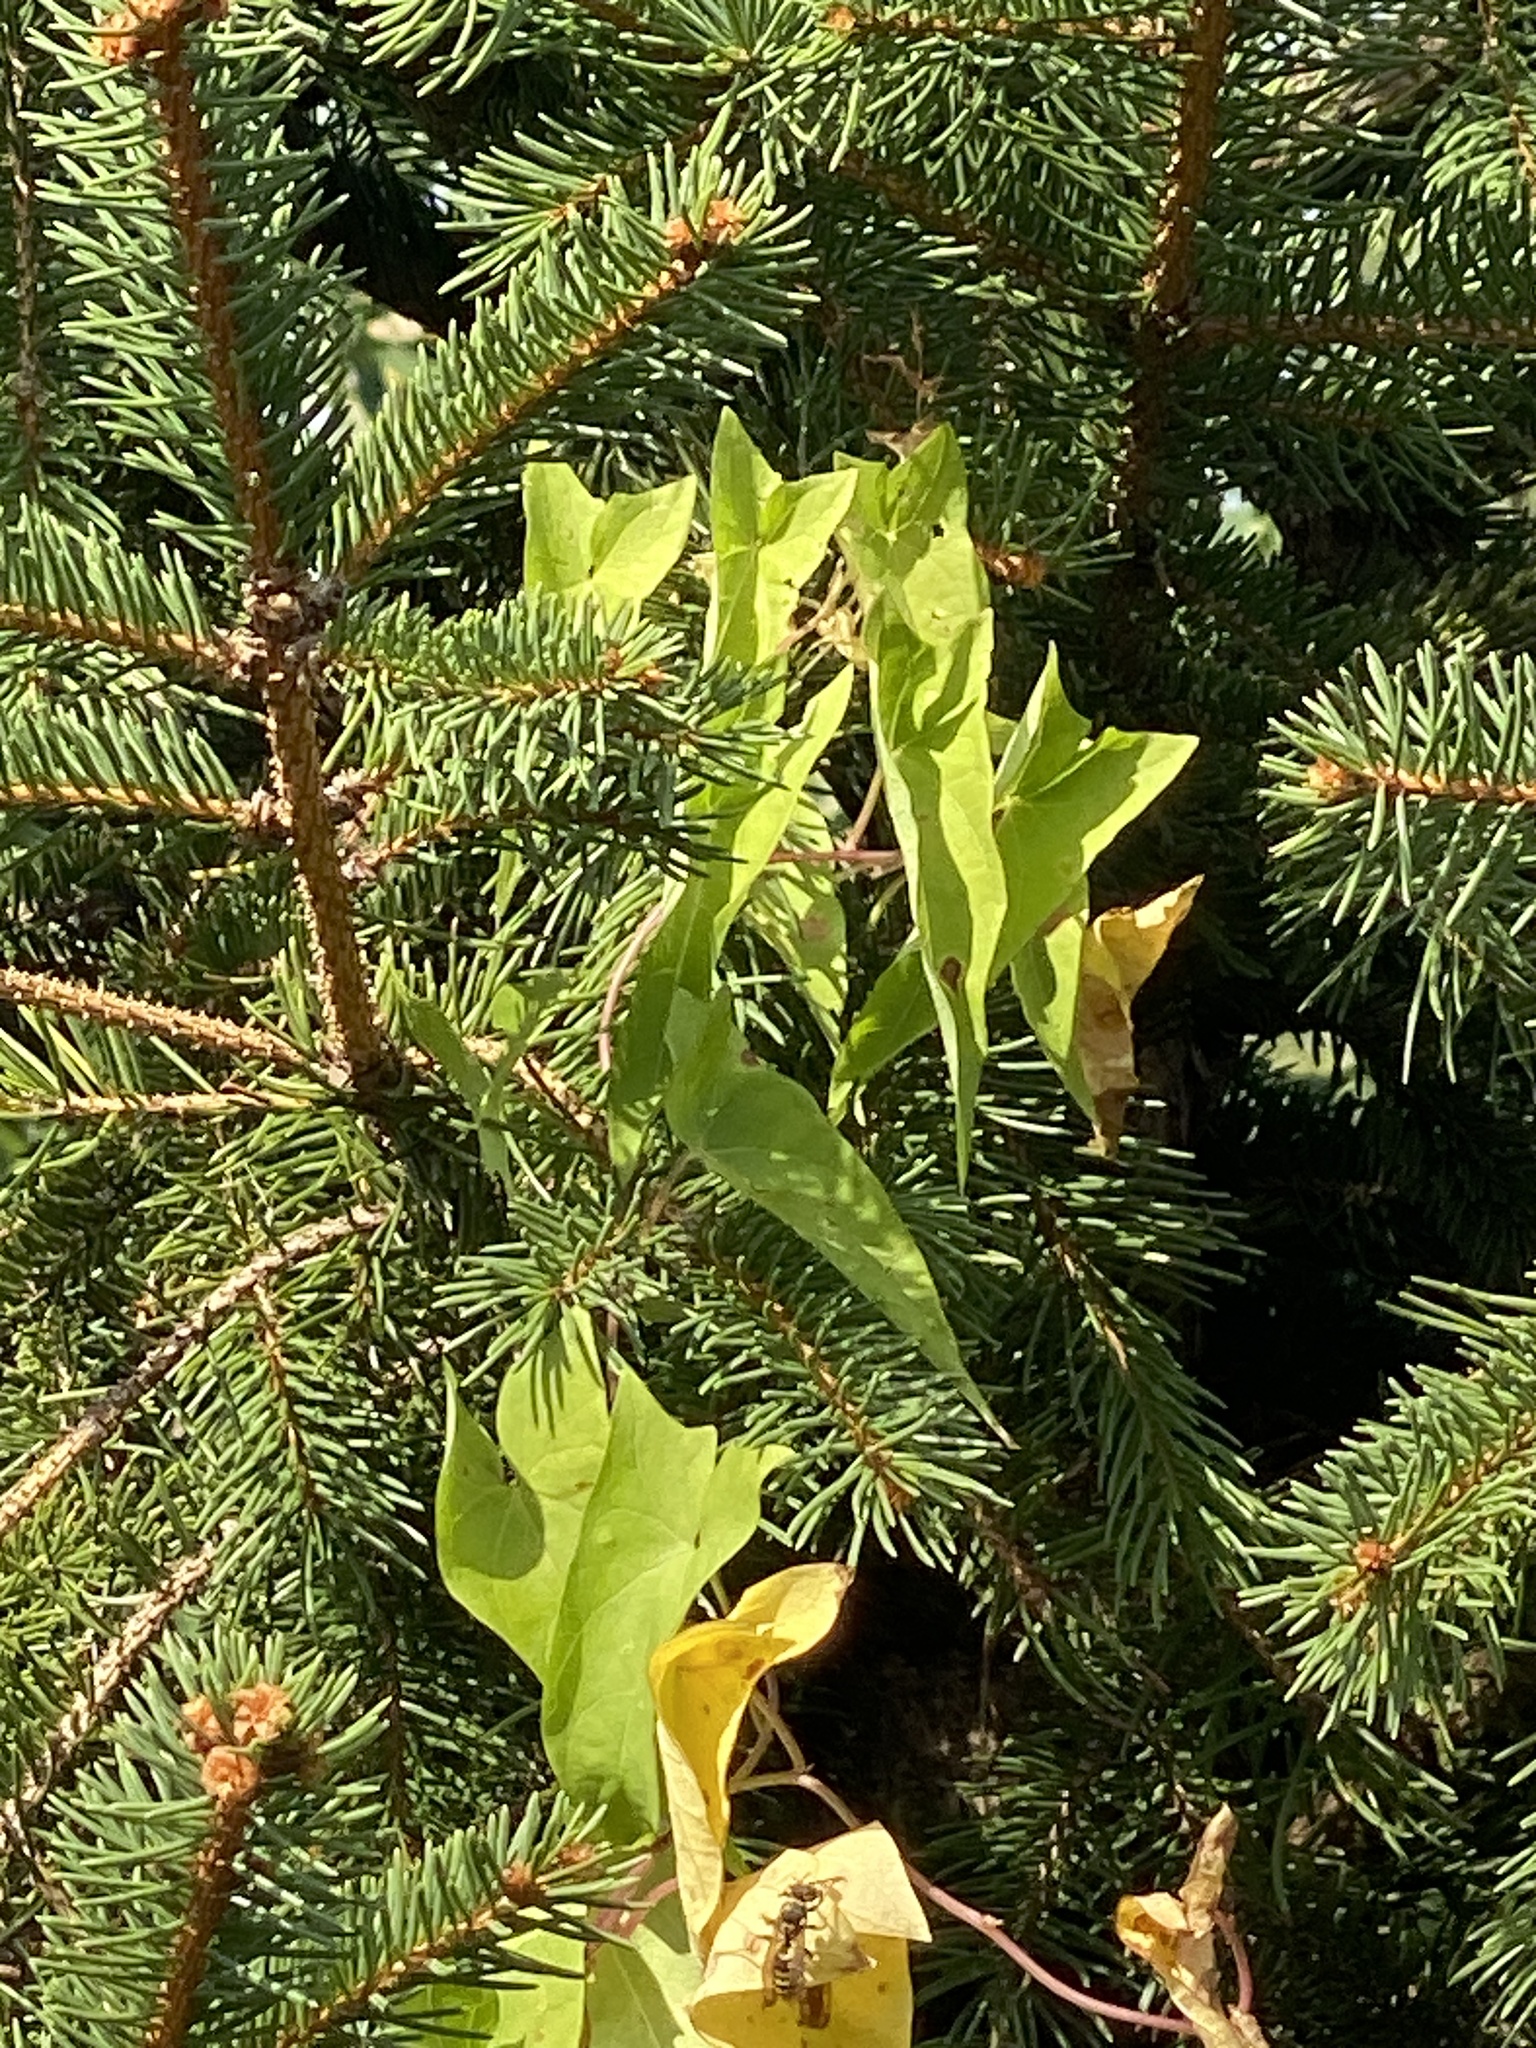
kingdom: Plantae
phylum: Tracheophyta
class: Magnoliopsida
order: Solanales
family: Convolvulaceae
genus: Calystegia
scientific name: Calystegia sepium
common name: Hedge bindweed
